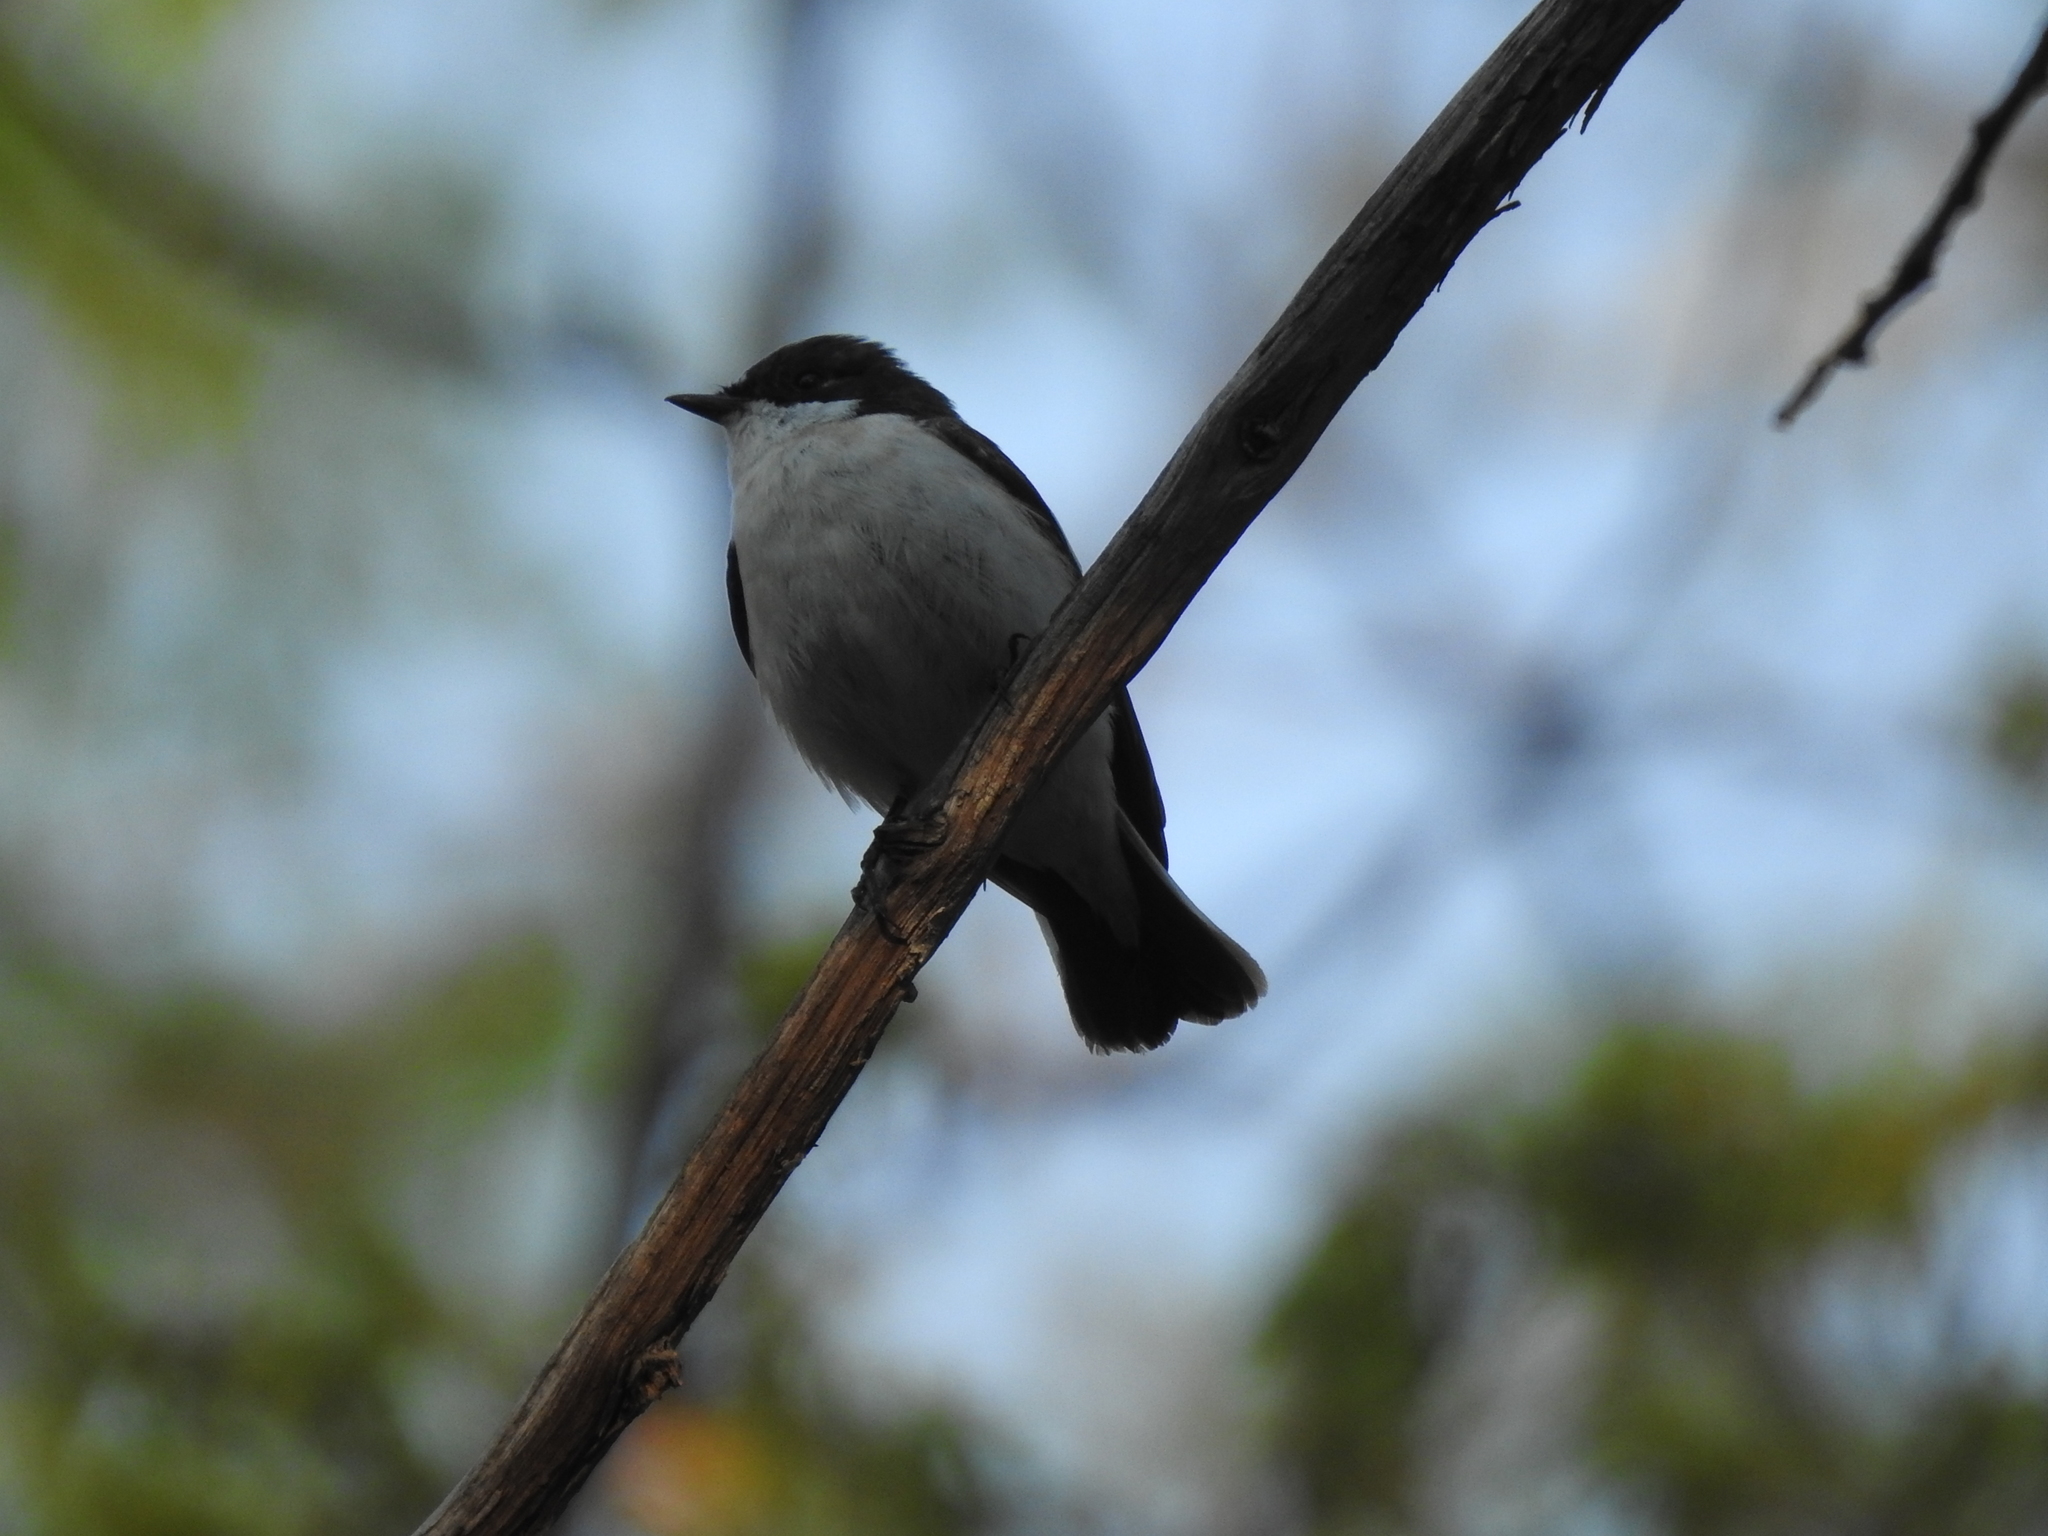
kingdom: Animalia
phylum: Chordata
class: Aves
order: Passeriformes
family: Muscicapidae
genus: Ficedula
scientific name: Ficedula hypoleuca
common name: European pied flycatcher
